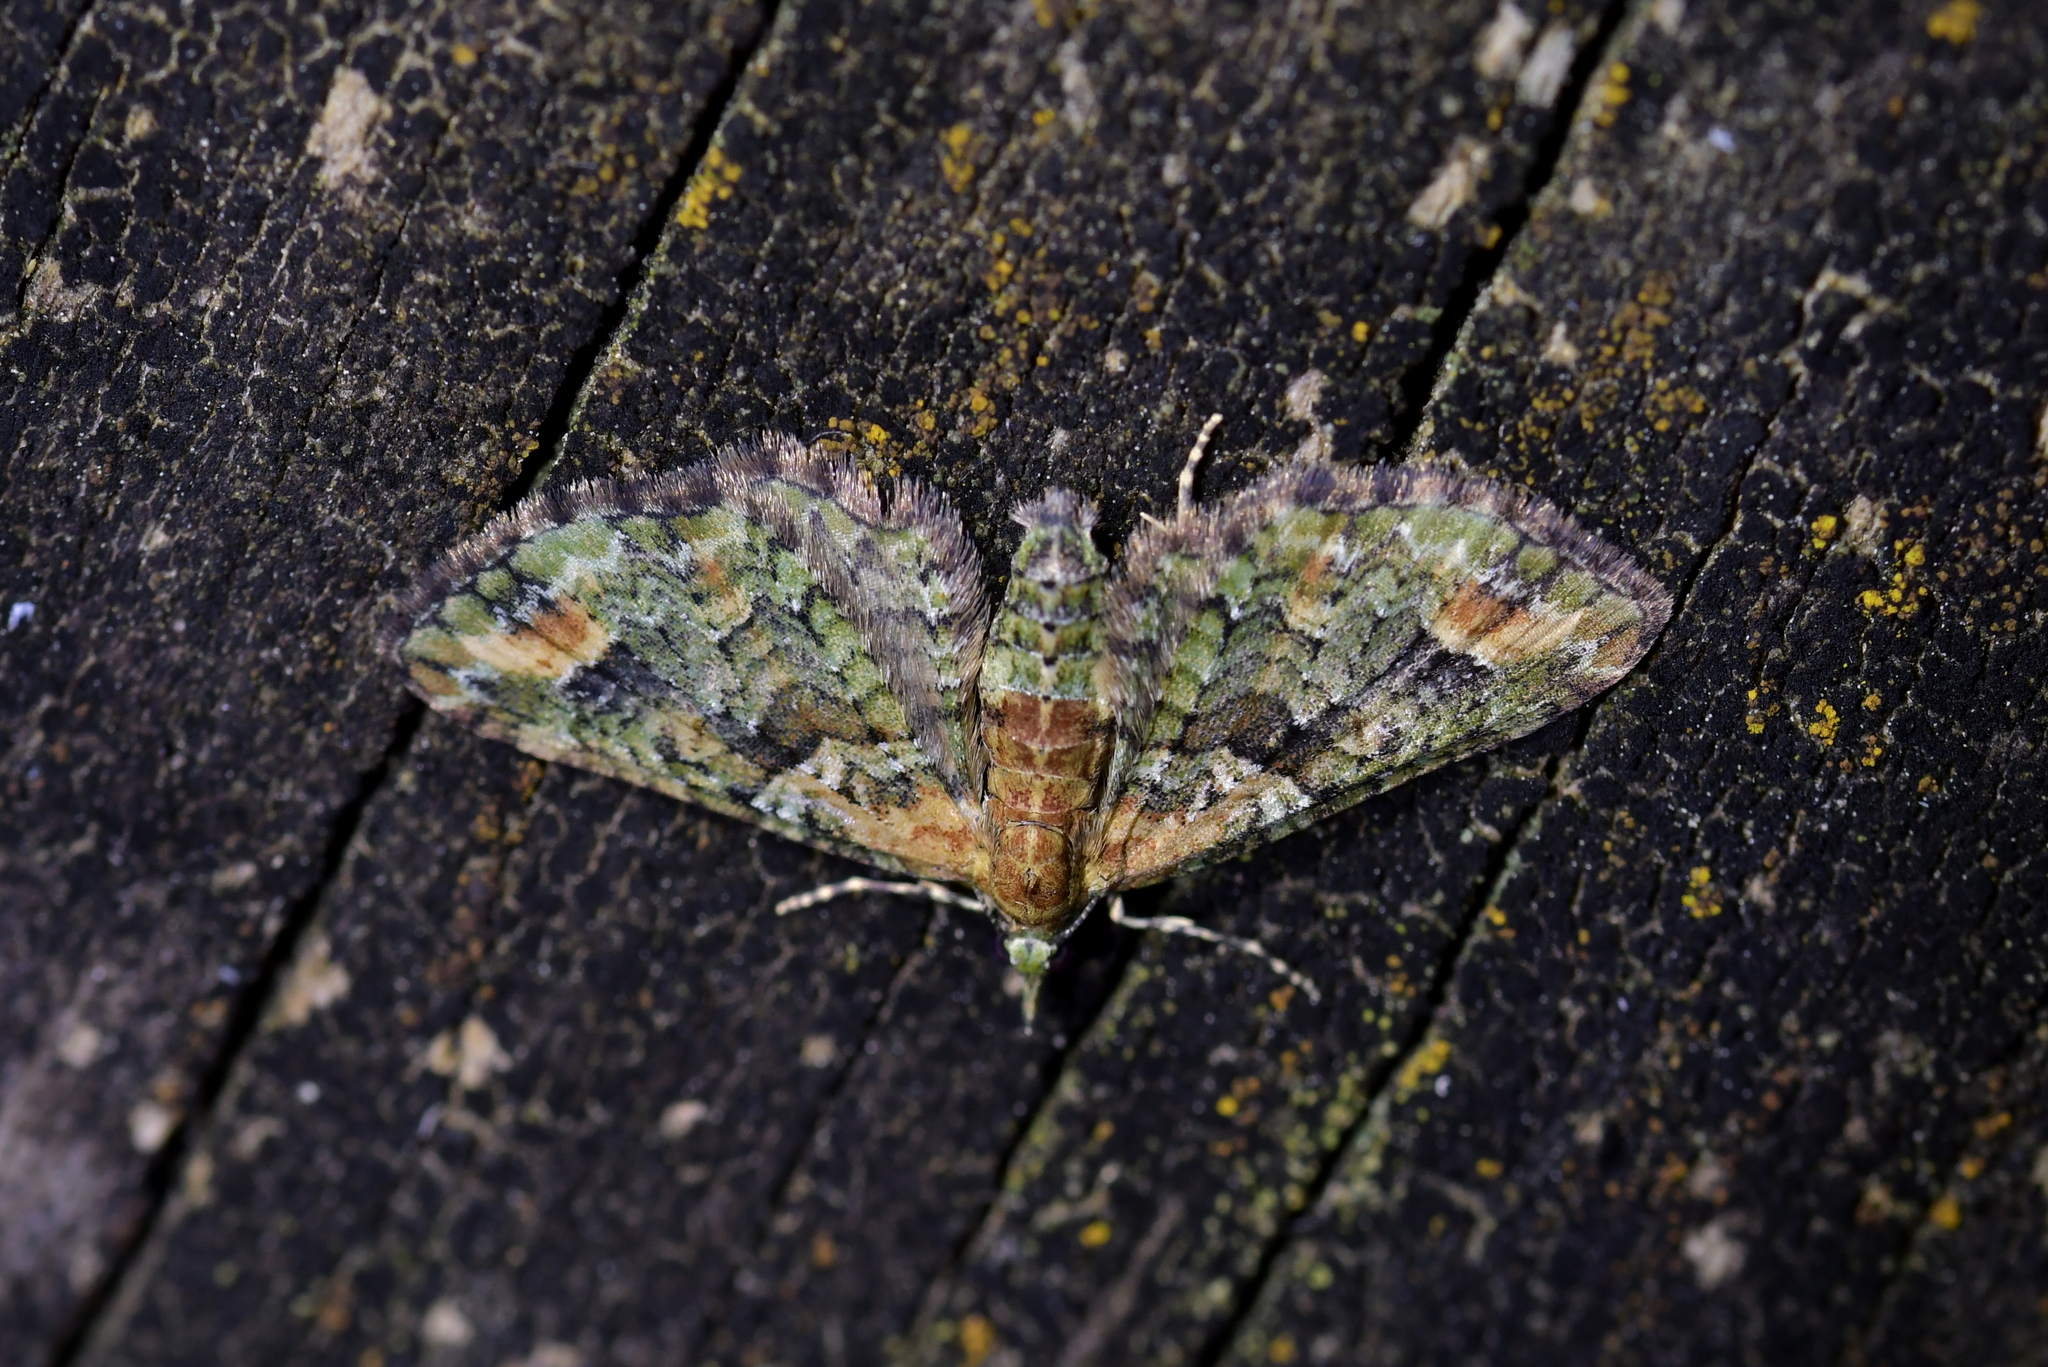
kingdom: Animalia
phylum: Arthropoda
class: Insecta
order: Lepidoptera
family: Geometridae
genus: Idaea
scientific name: Idaea mutanda
